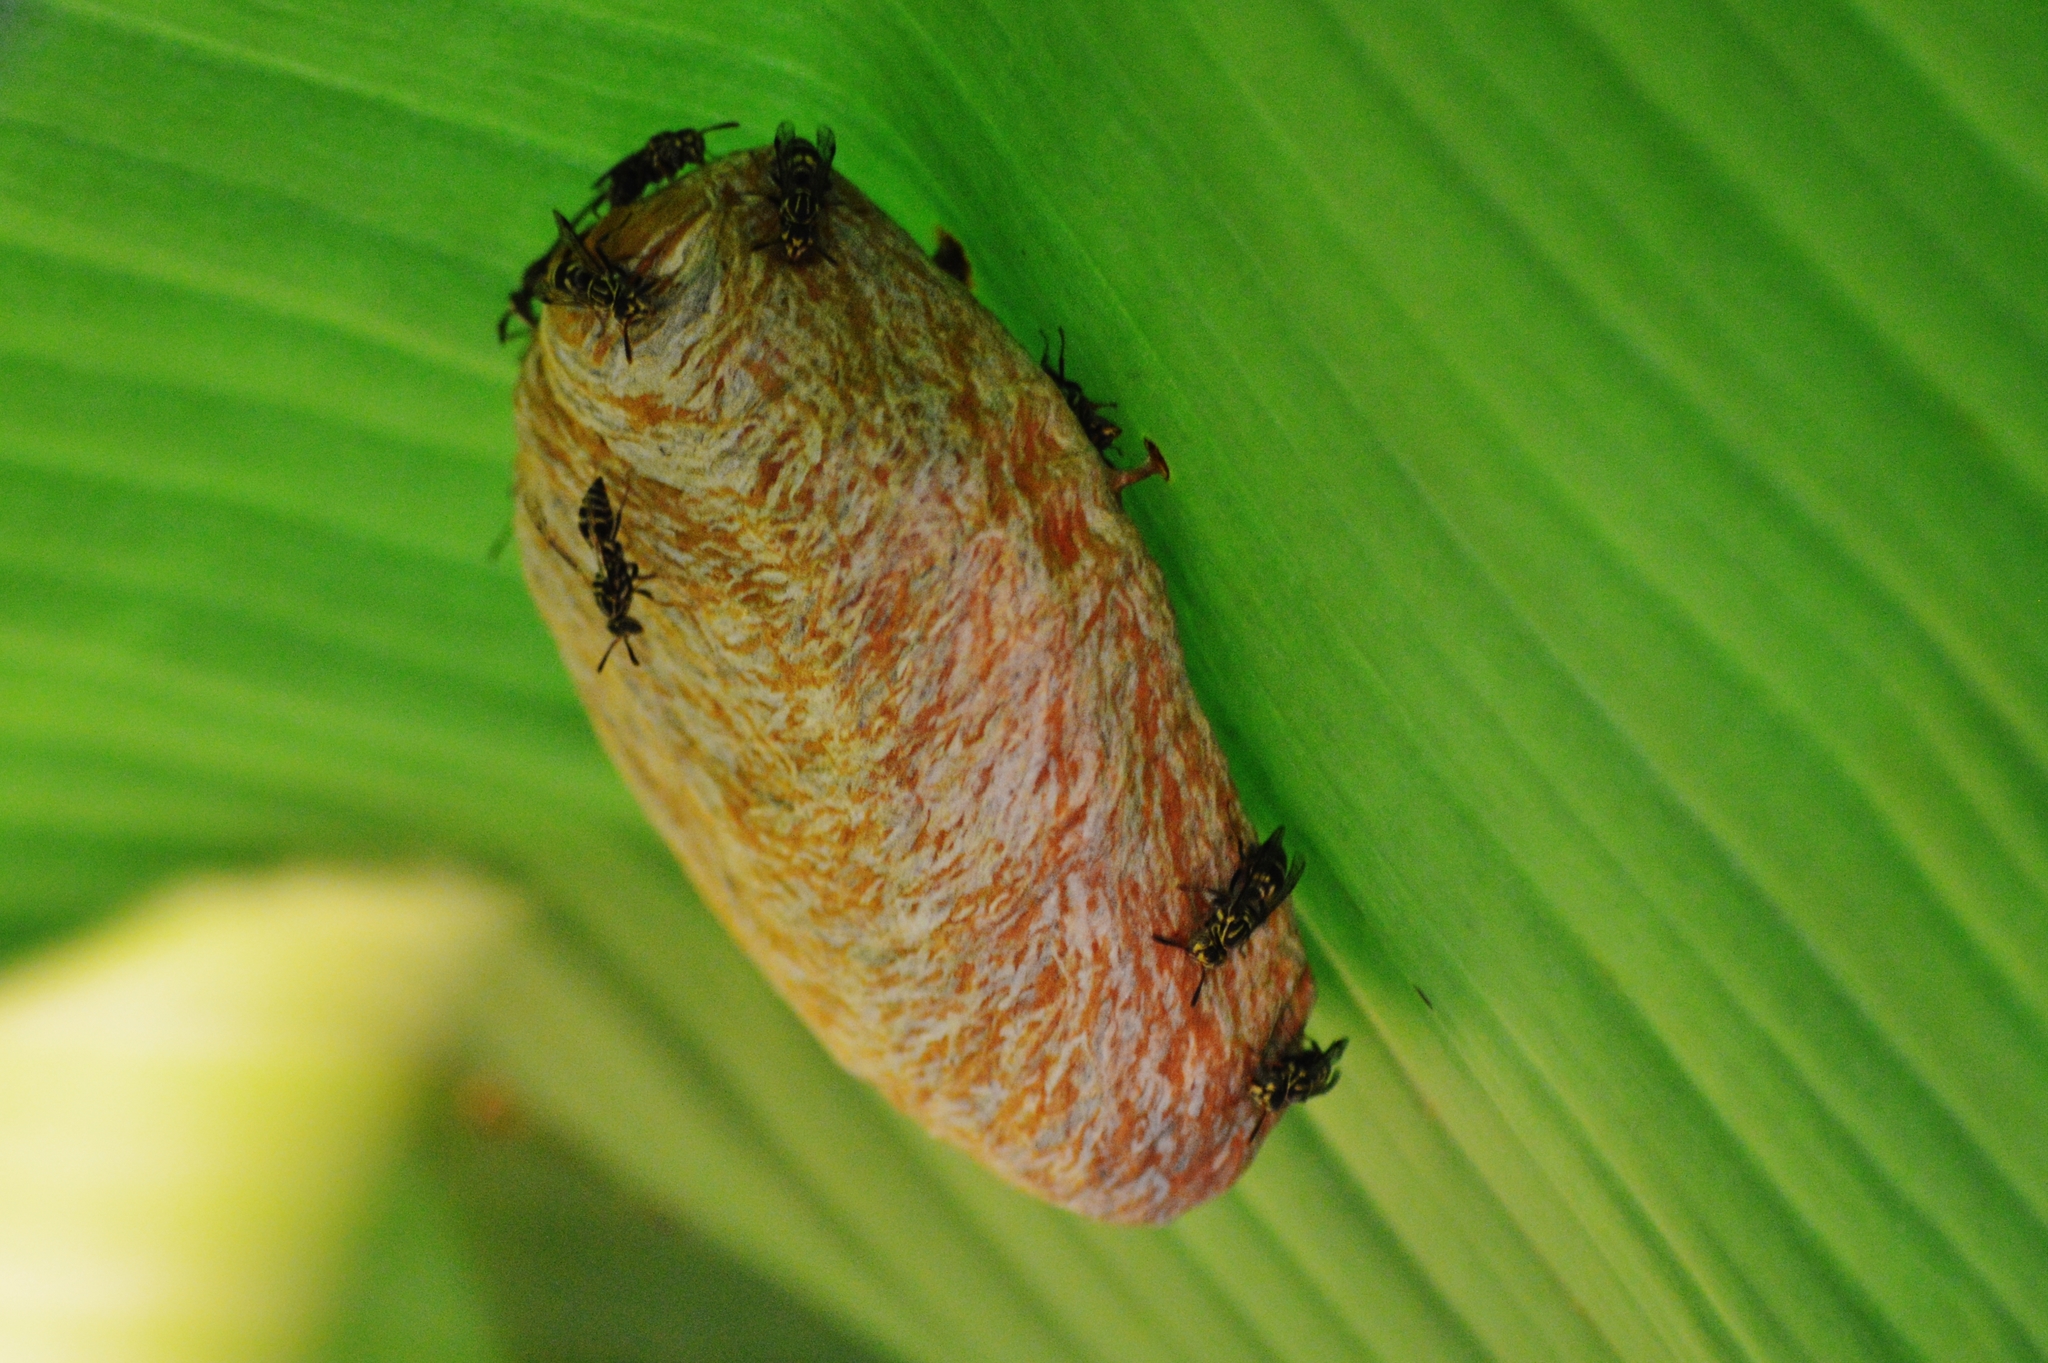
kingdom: Animalia
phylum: Arthropoda
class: Insecta
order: Hymenoptera
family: Vespidae
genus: Protopolybia
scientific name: Protopolybia exigua
